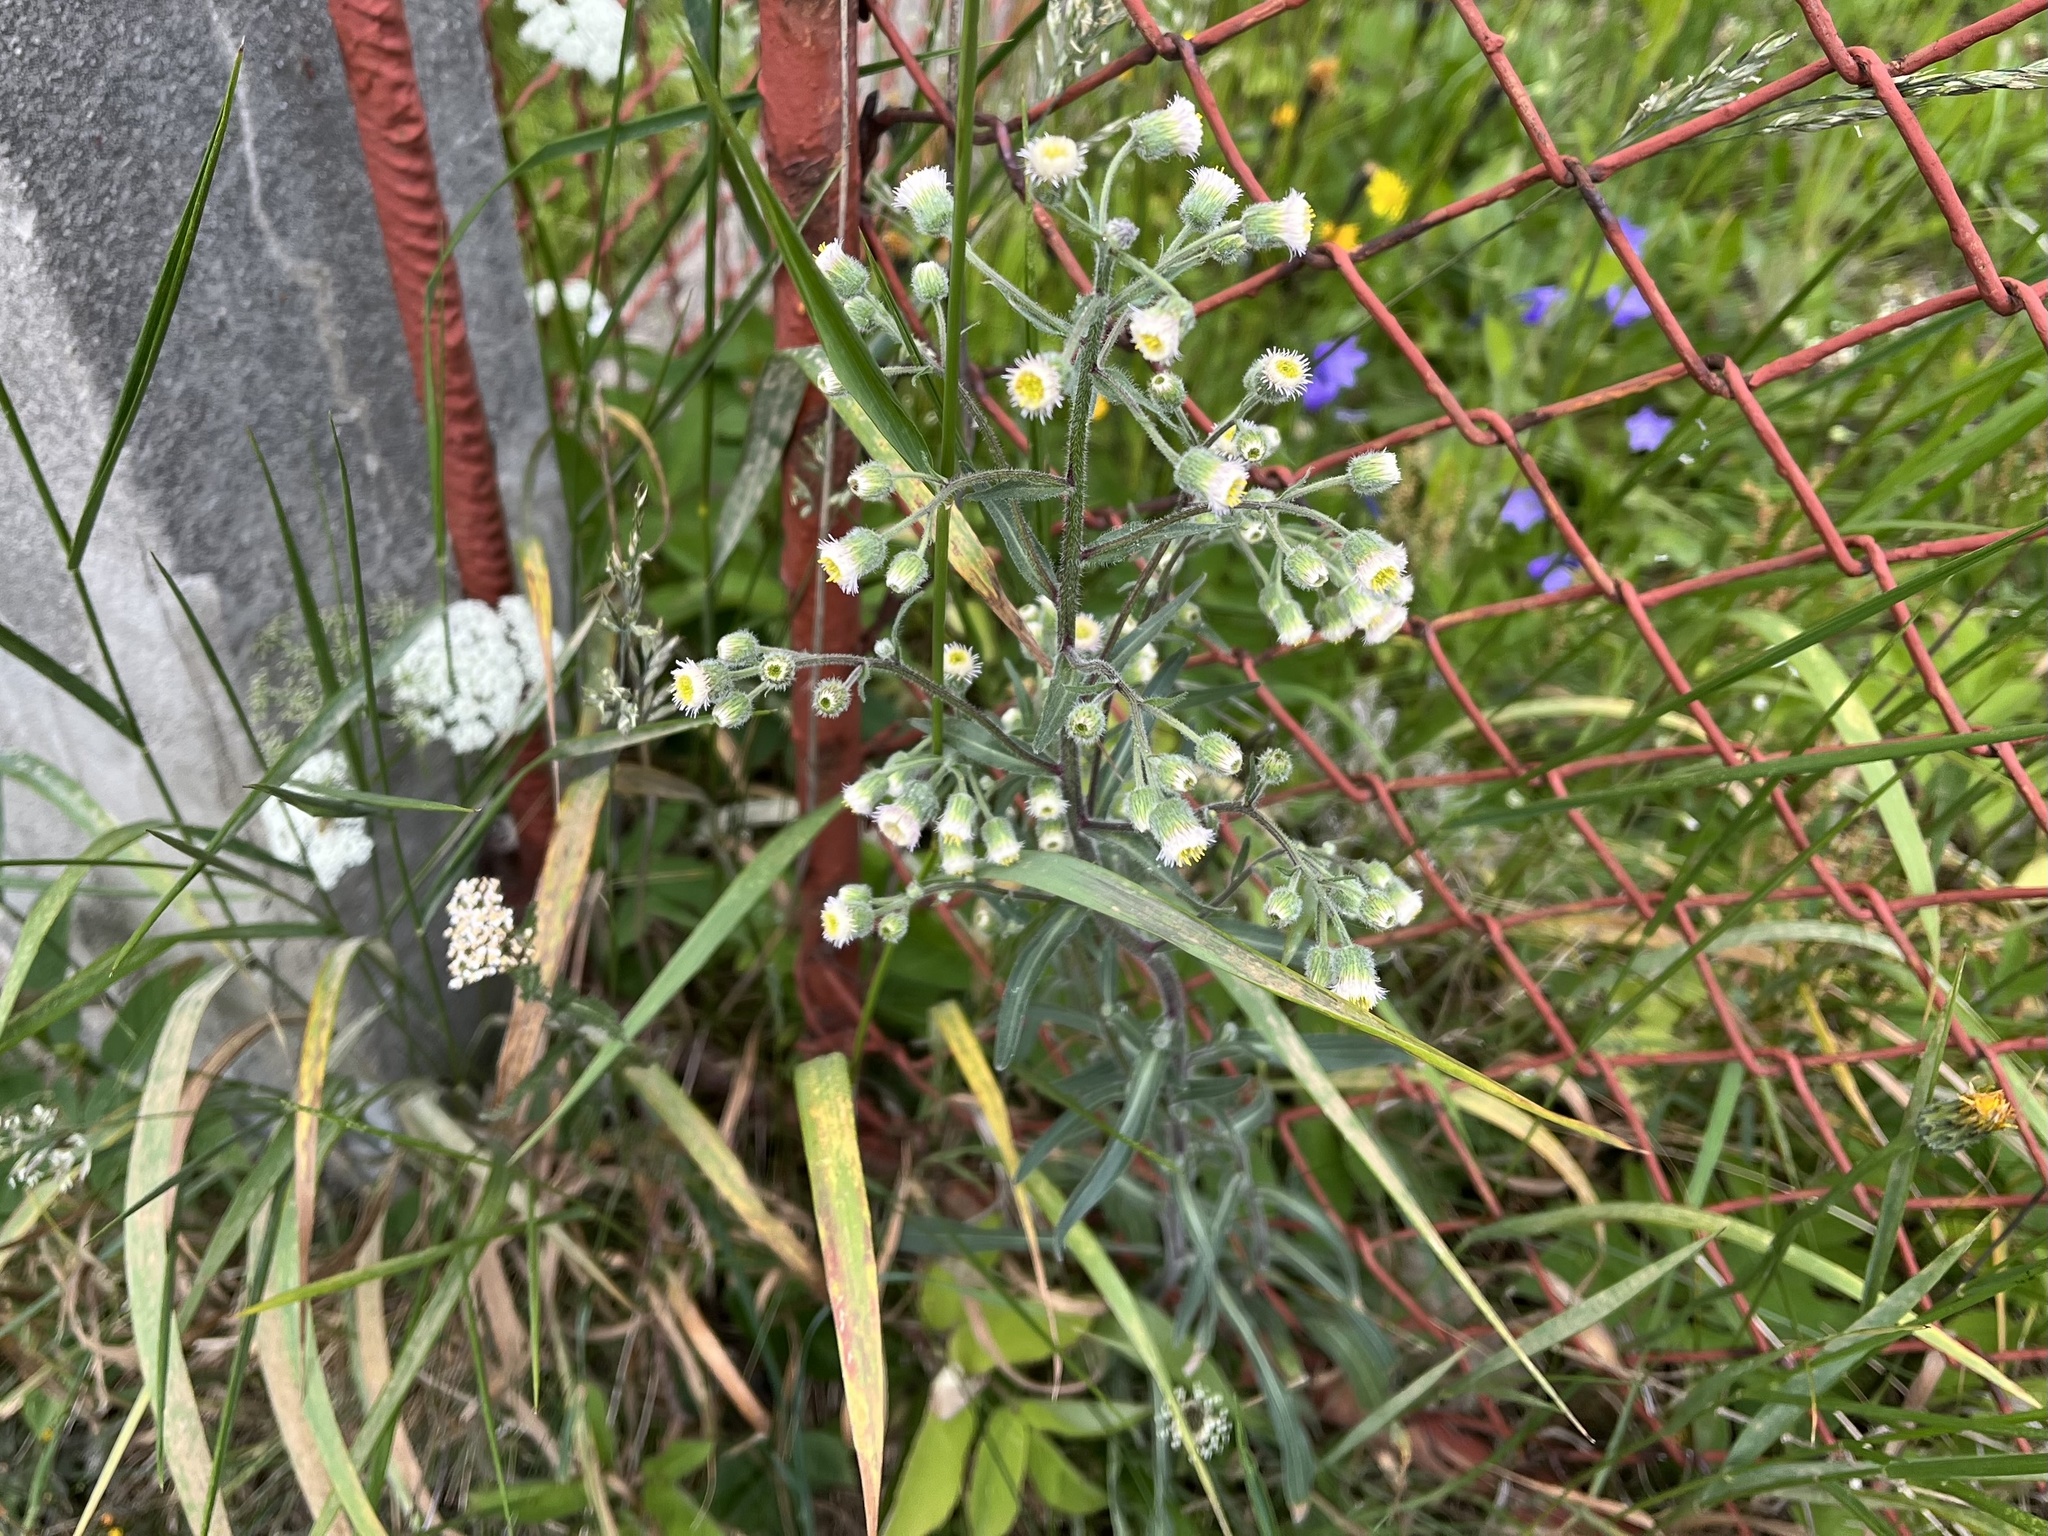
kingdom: Plantae
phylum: Tracheophyta
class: Magnoliopsida
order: Asterales
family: Asteraceae
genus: Erigeron
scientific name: Erigeron acris
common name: Blue fleabane
